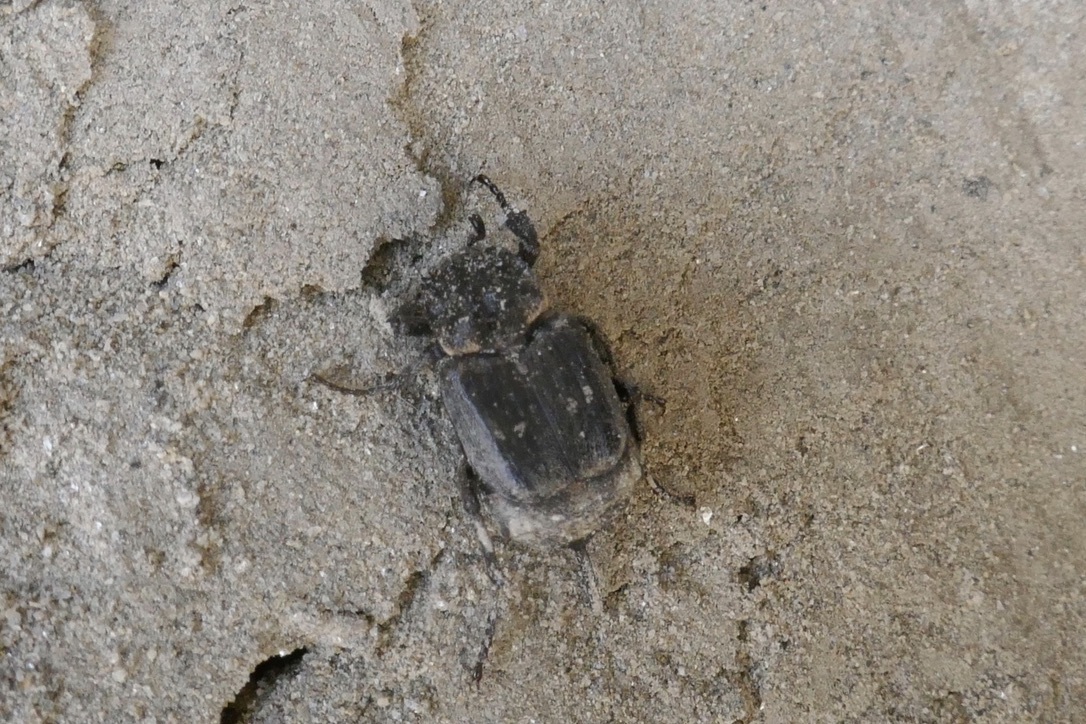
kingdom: Animalia
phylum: Arthropoda
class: Insecta
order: Coleoptera
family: Scarabaeidae
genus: Valgus
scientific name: Valgus hemipterus
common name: Bug flower chafer
